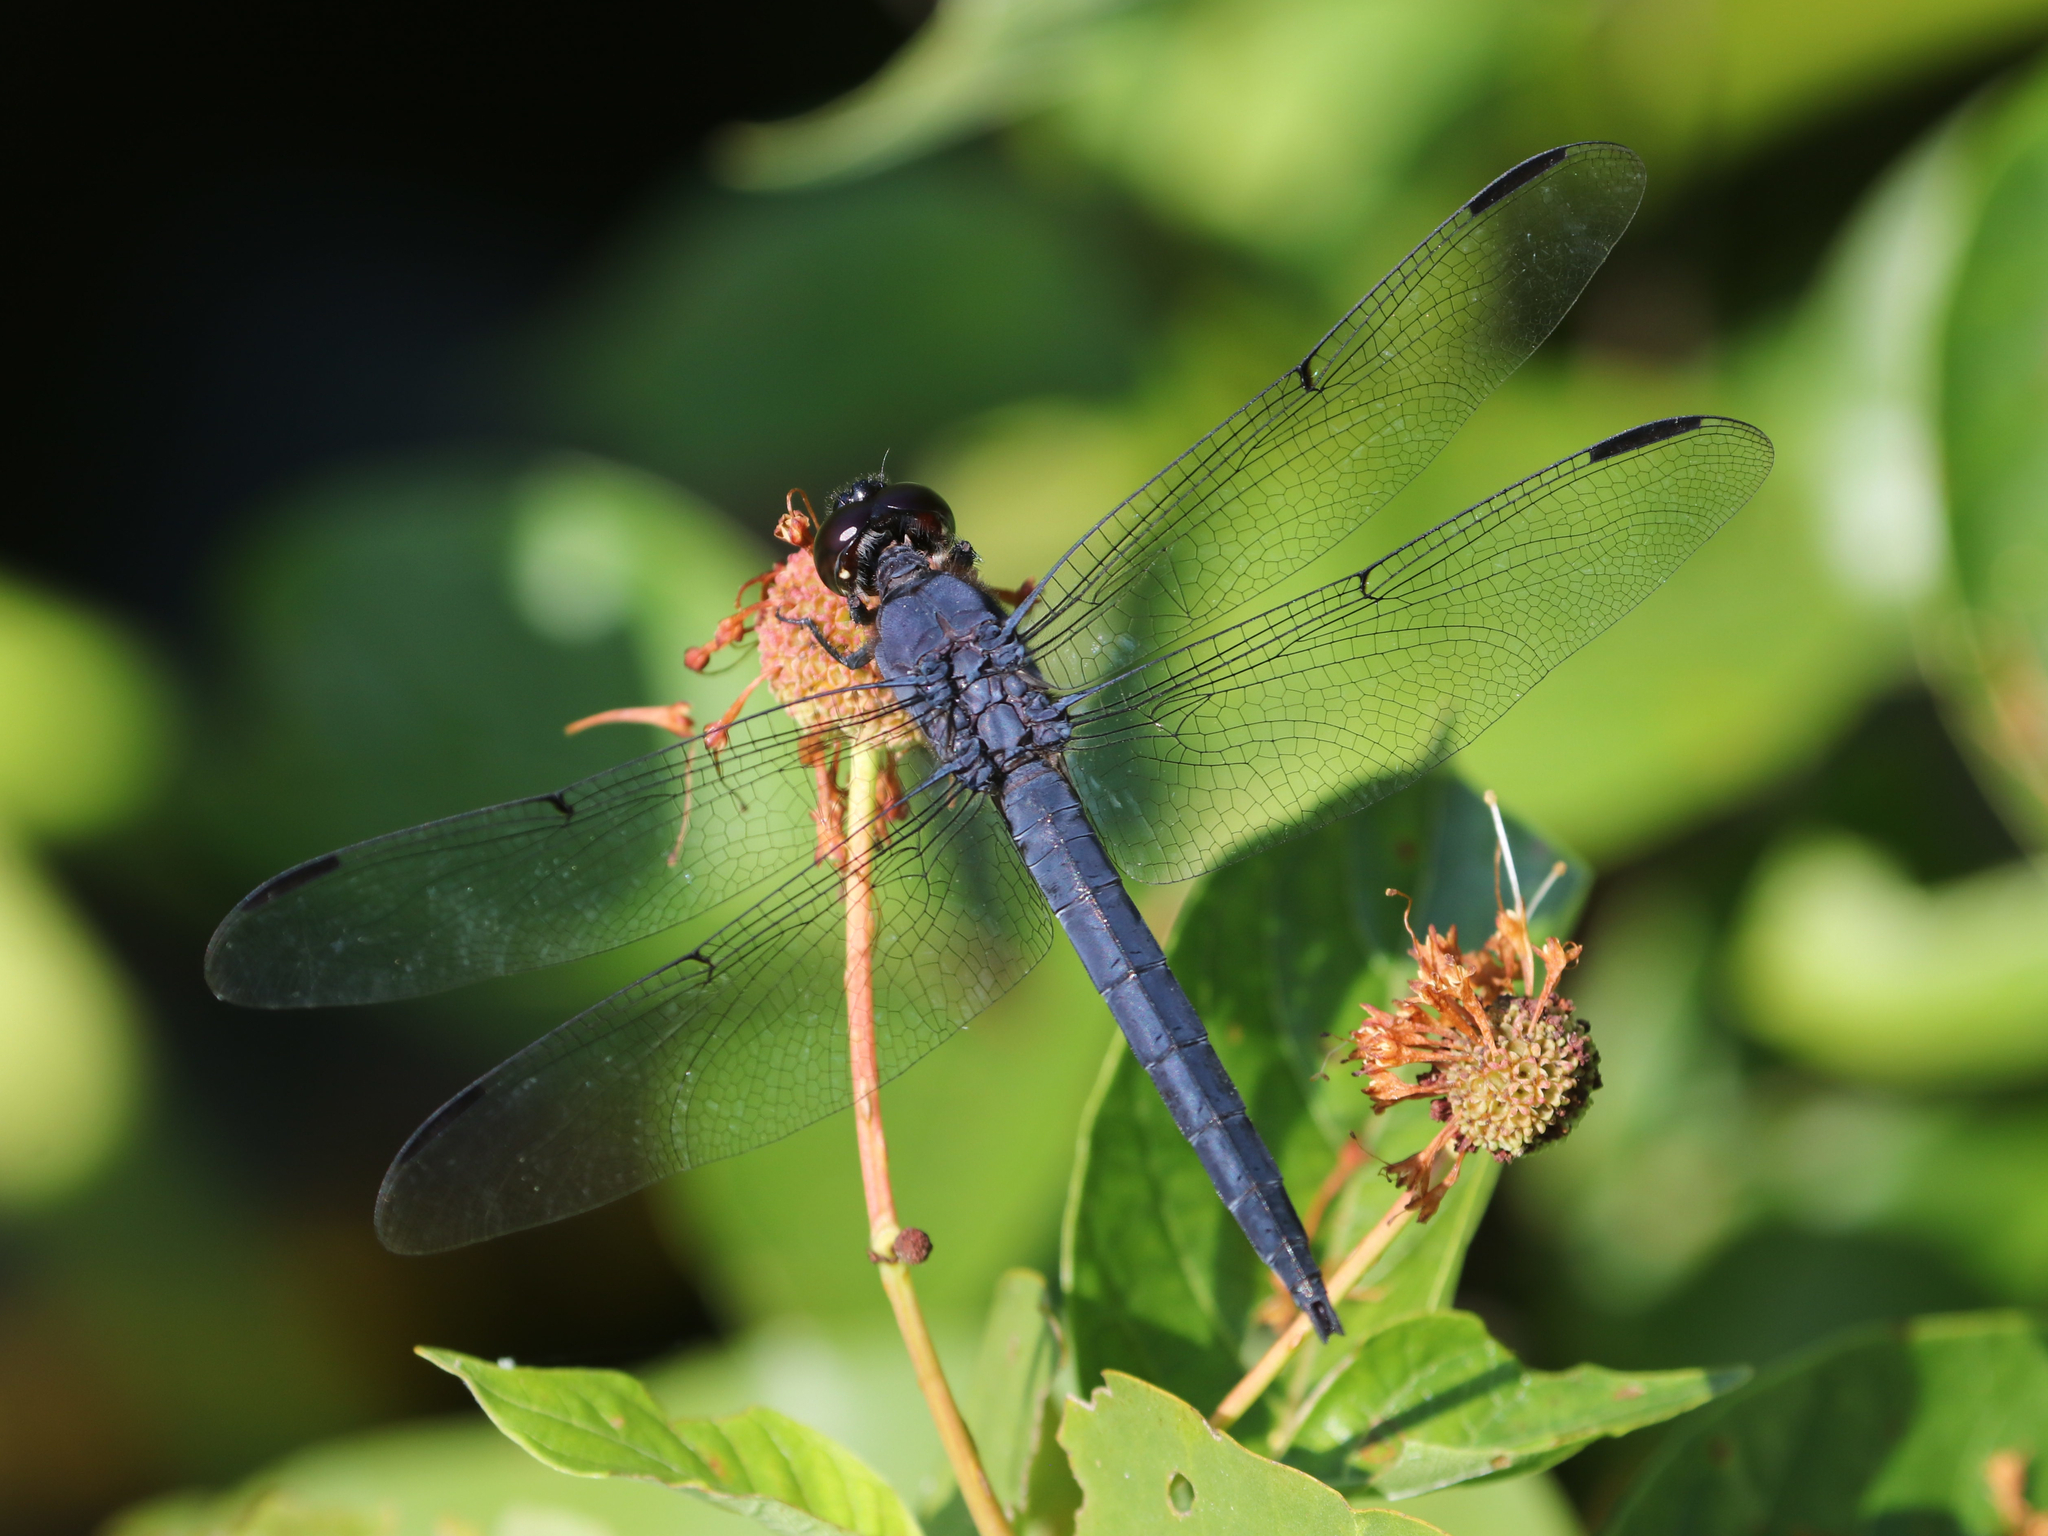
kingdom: Animalia
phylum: Arthropoda
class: Insecta
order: Odonata
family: Libellulidae
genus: Libellula
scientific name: Libellula incesta
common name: Slaty skimmer
